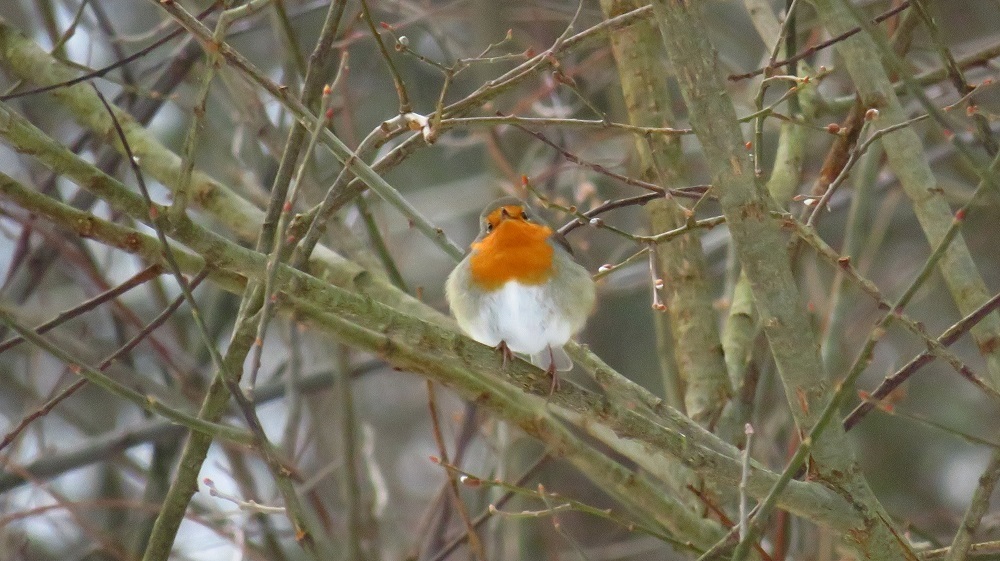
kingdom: Animalia
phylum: Chordata
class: Aves
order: Passeriformes
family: Muscicapidae
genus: Erithacus
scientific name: Erithacus rubecula
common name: European robin
